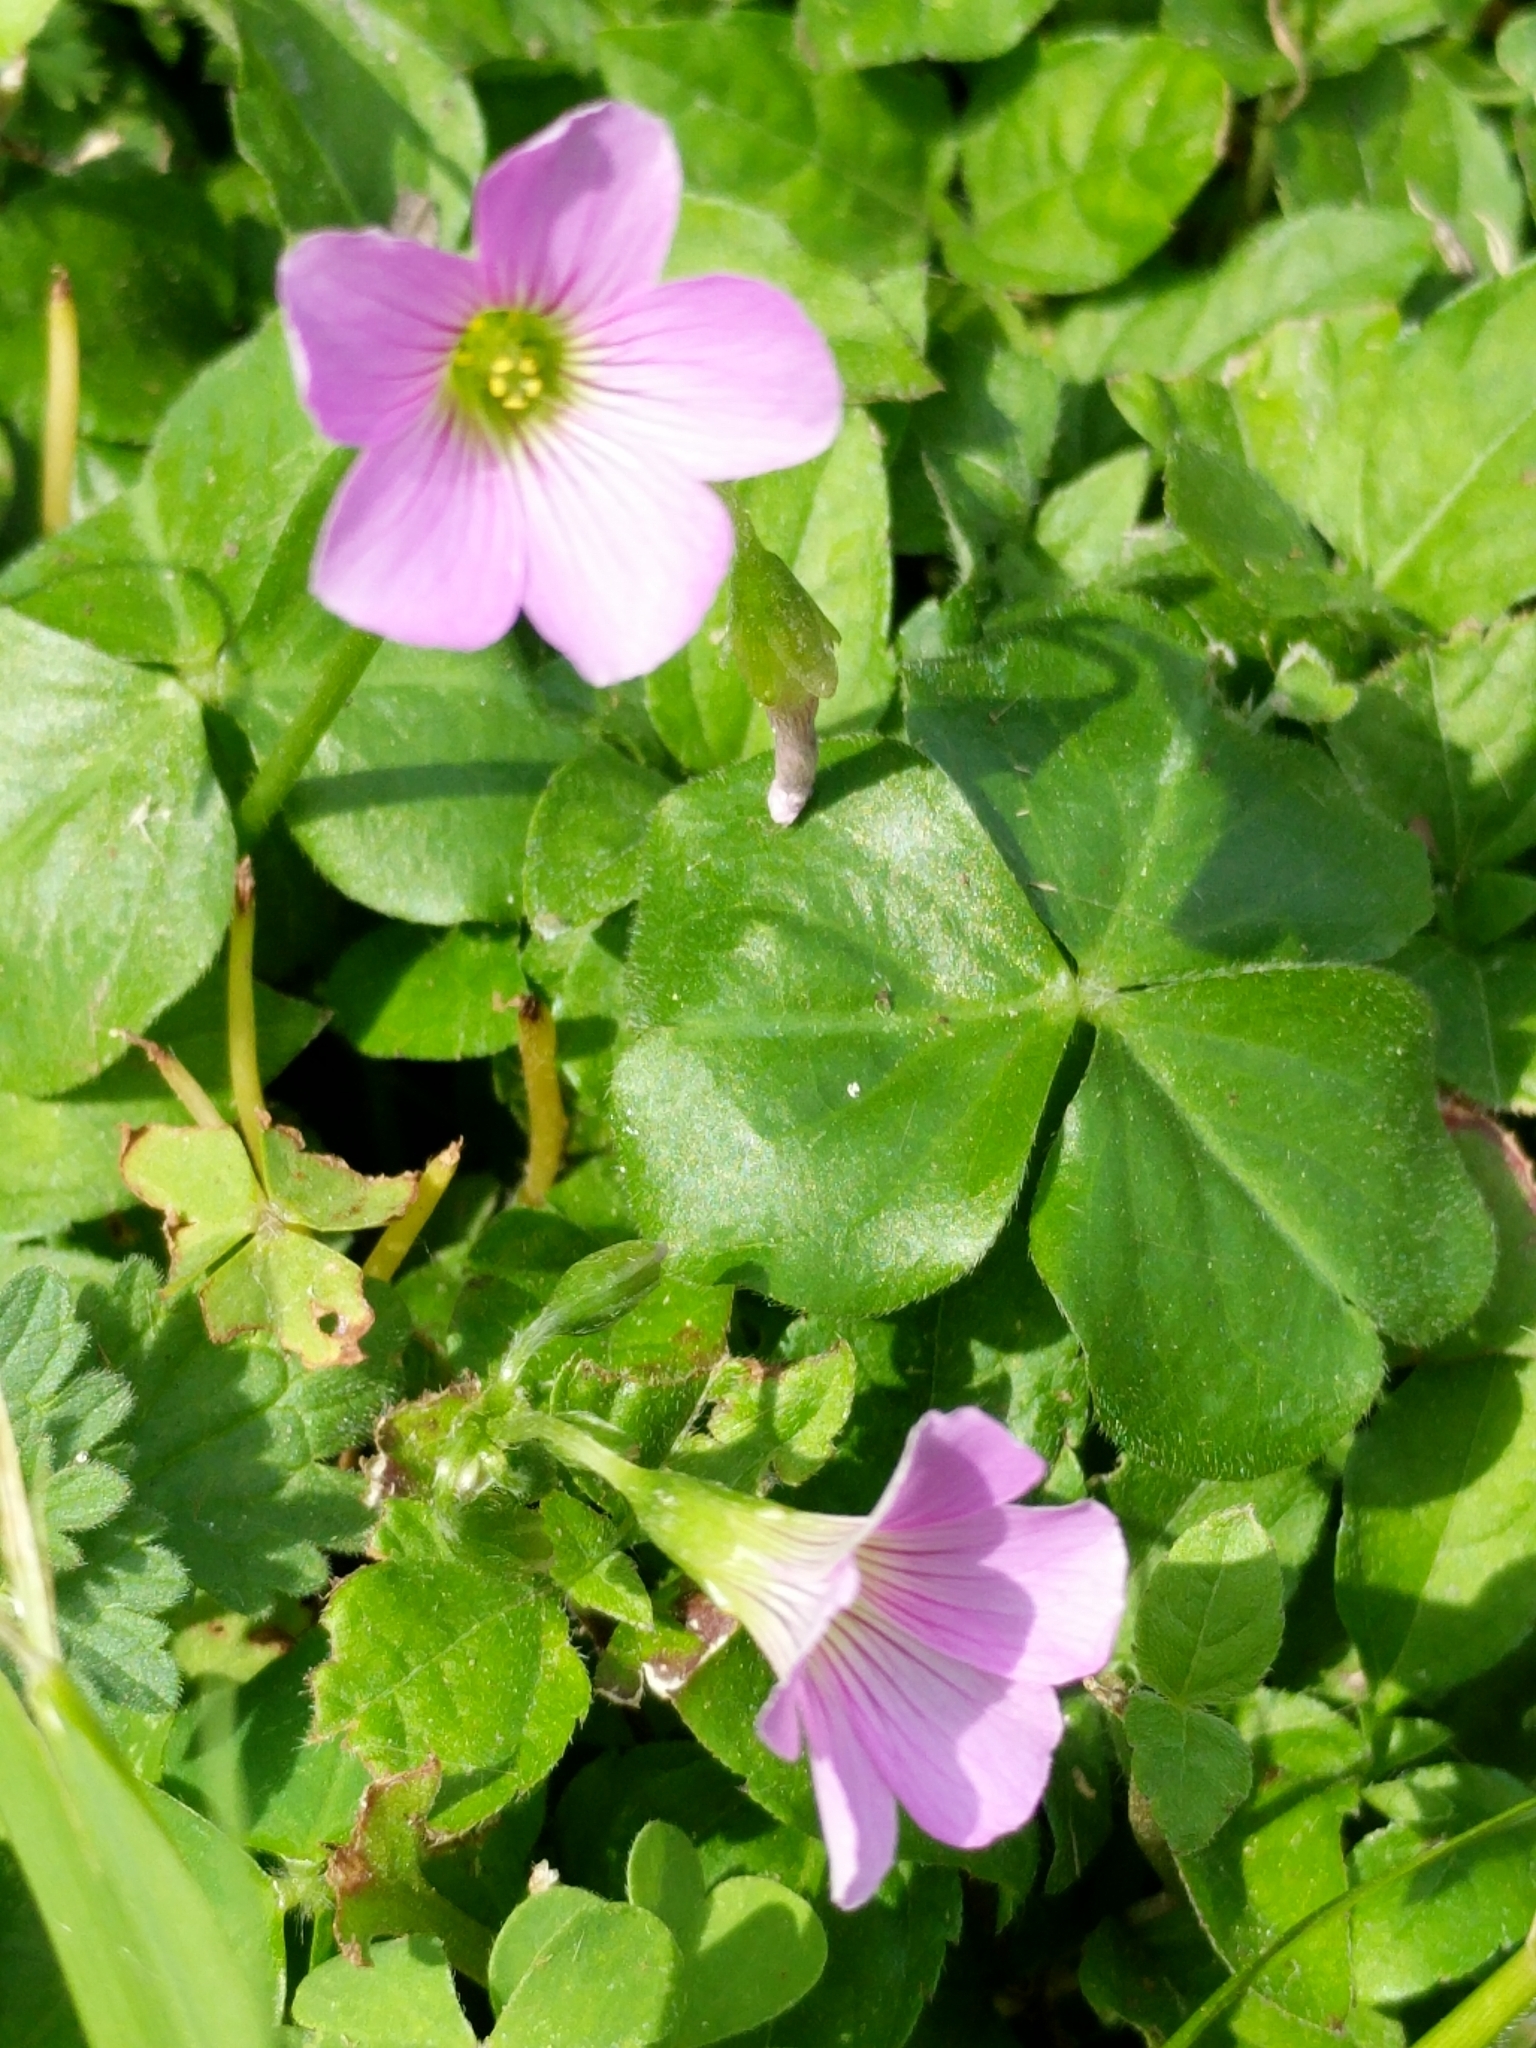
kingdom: Plantae
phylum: Tracheophyta
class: Magnoliopsida
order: Oxalidales
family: Oxalidaceae
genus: Oxalis
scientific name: Oxalis debilis
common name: Large-flowered pink-sorrel
